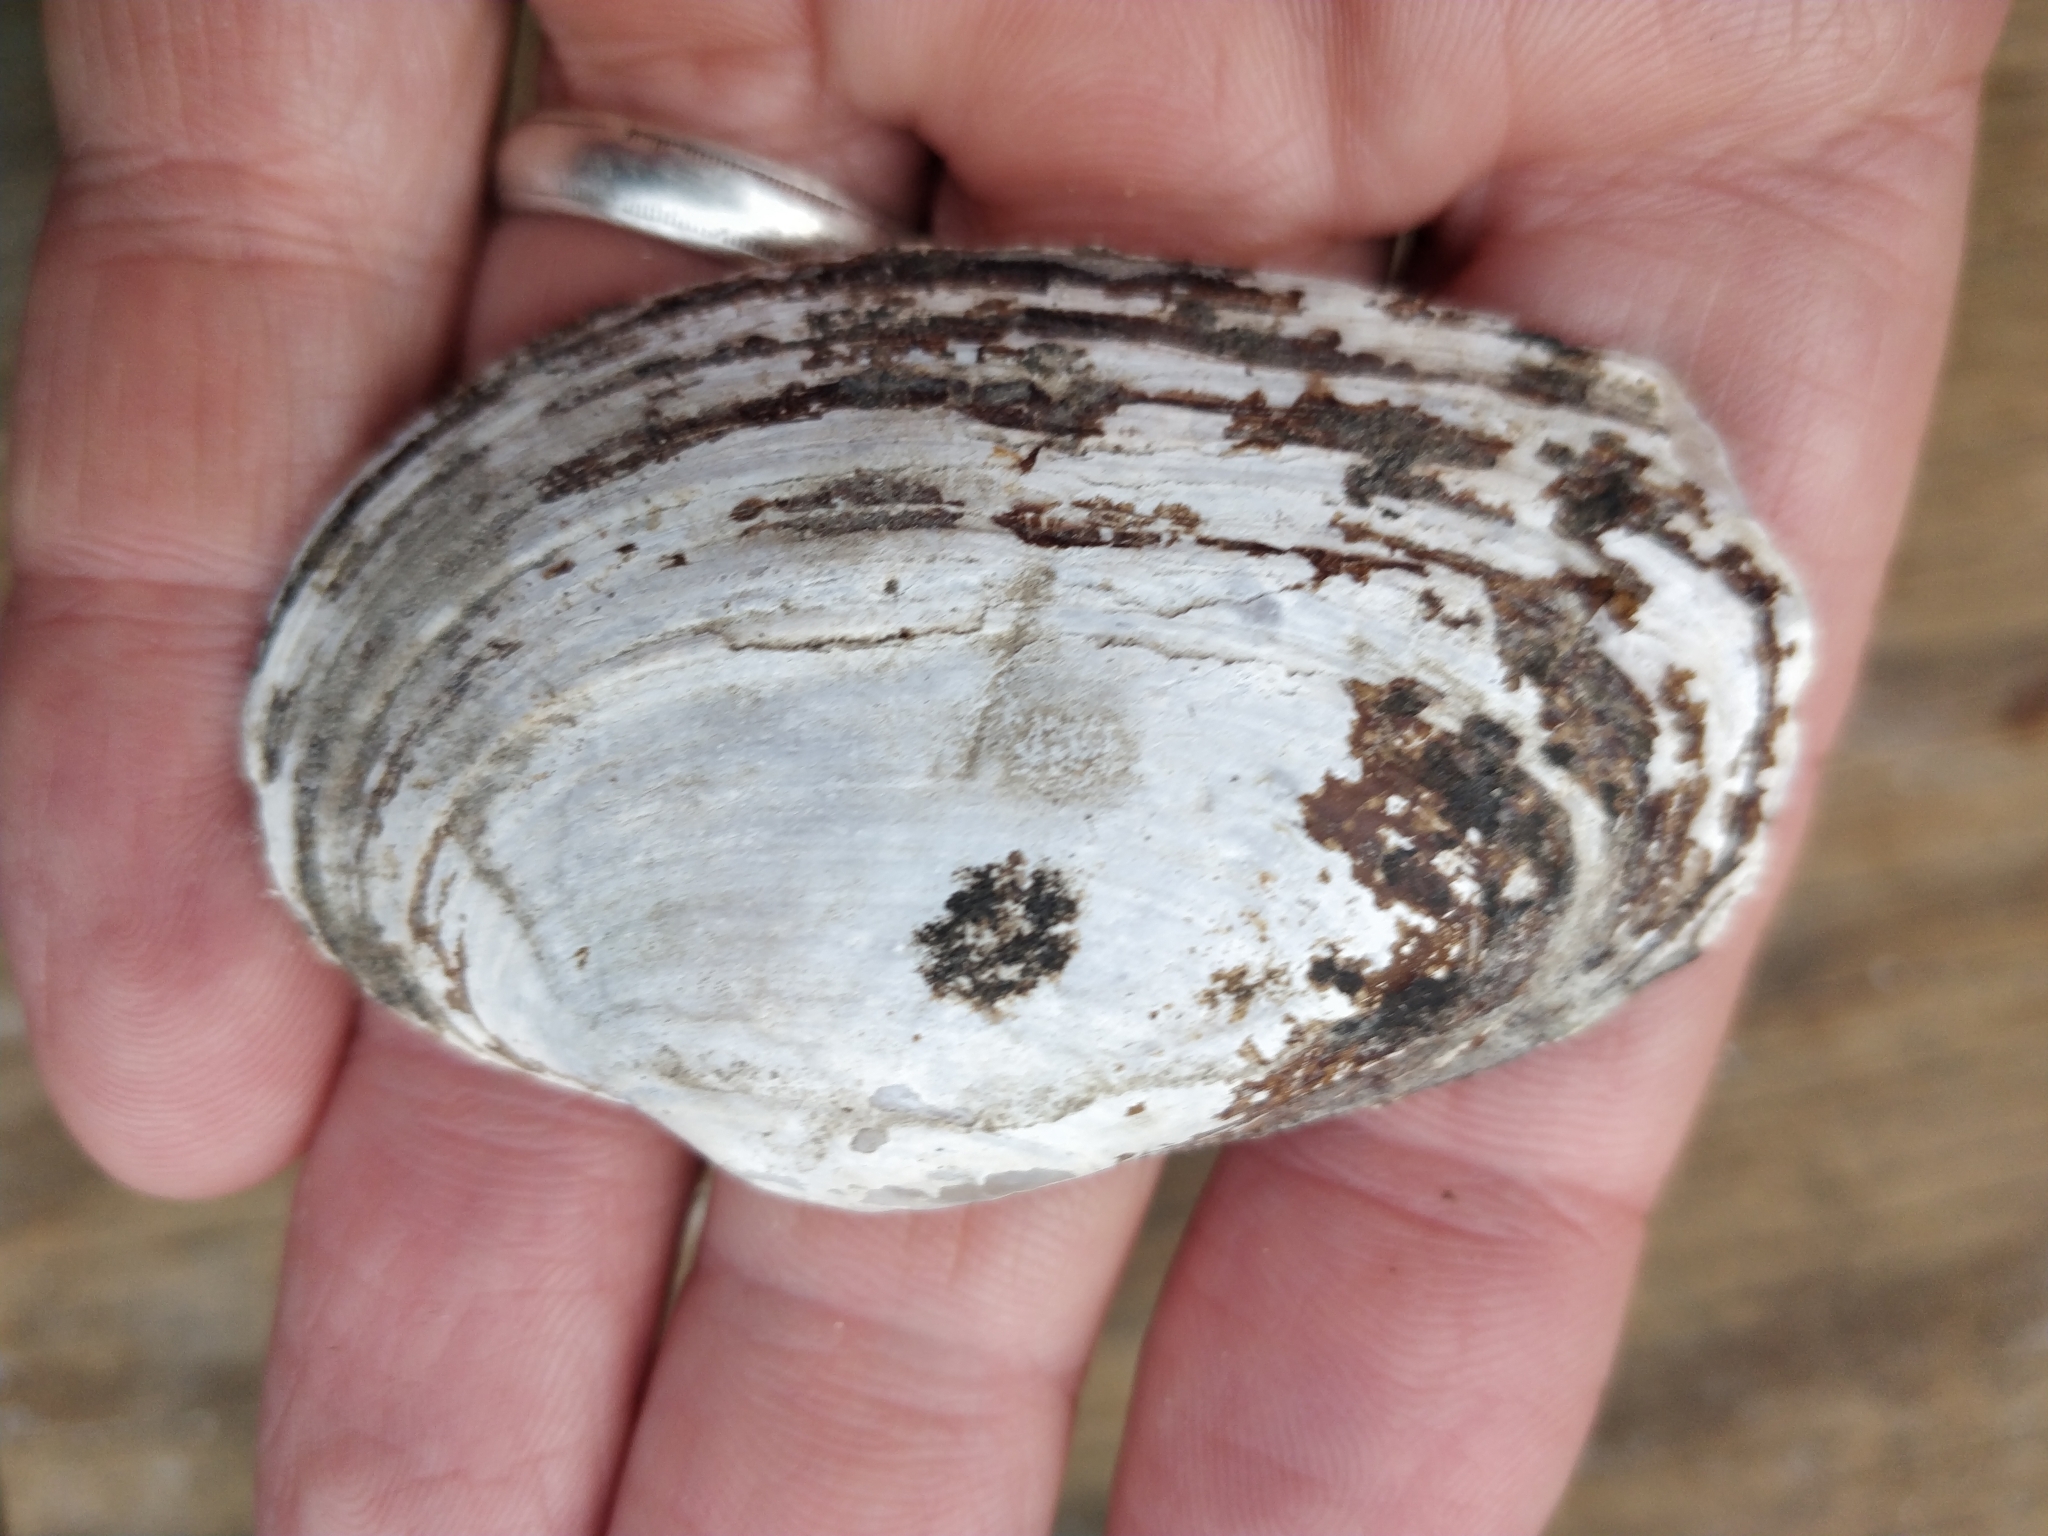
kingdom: Animalia
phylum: Mollusca
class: Bivalvia
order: Unionida
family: Unionidae
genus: Strophitus
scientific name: Strophitus undulatus
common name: Creeper
